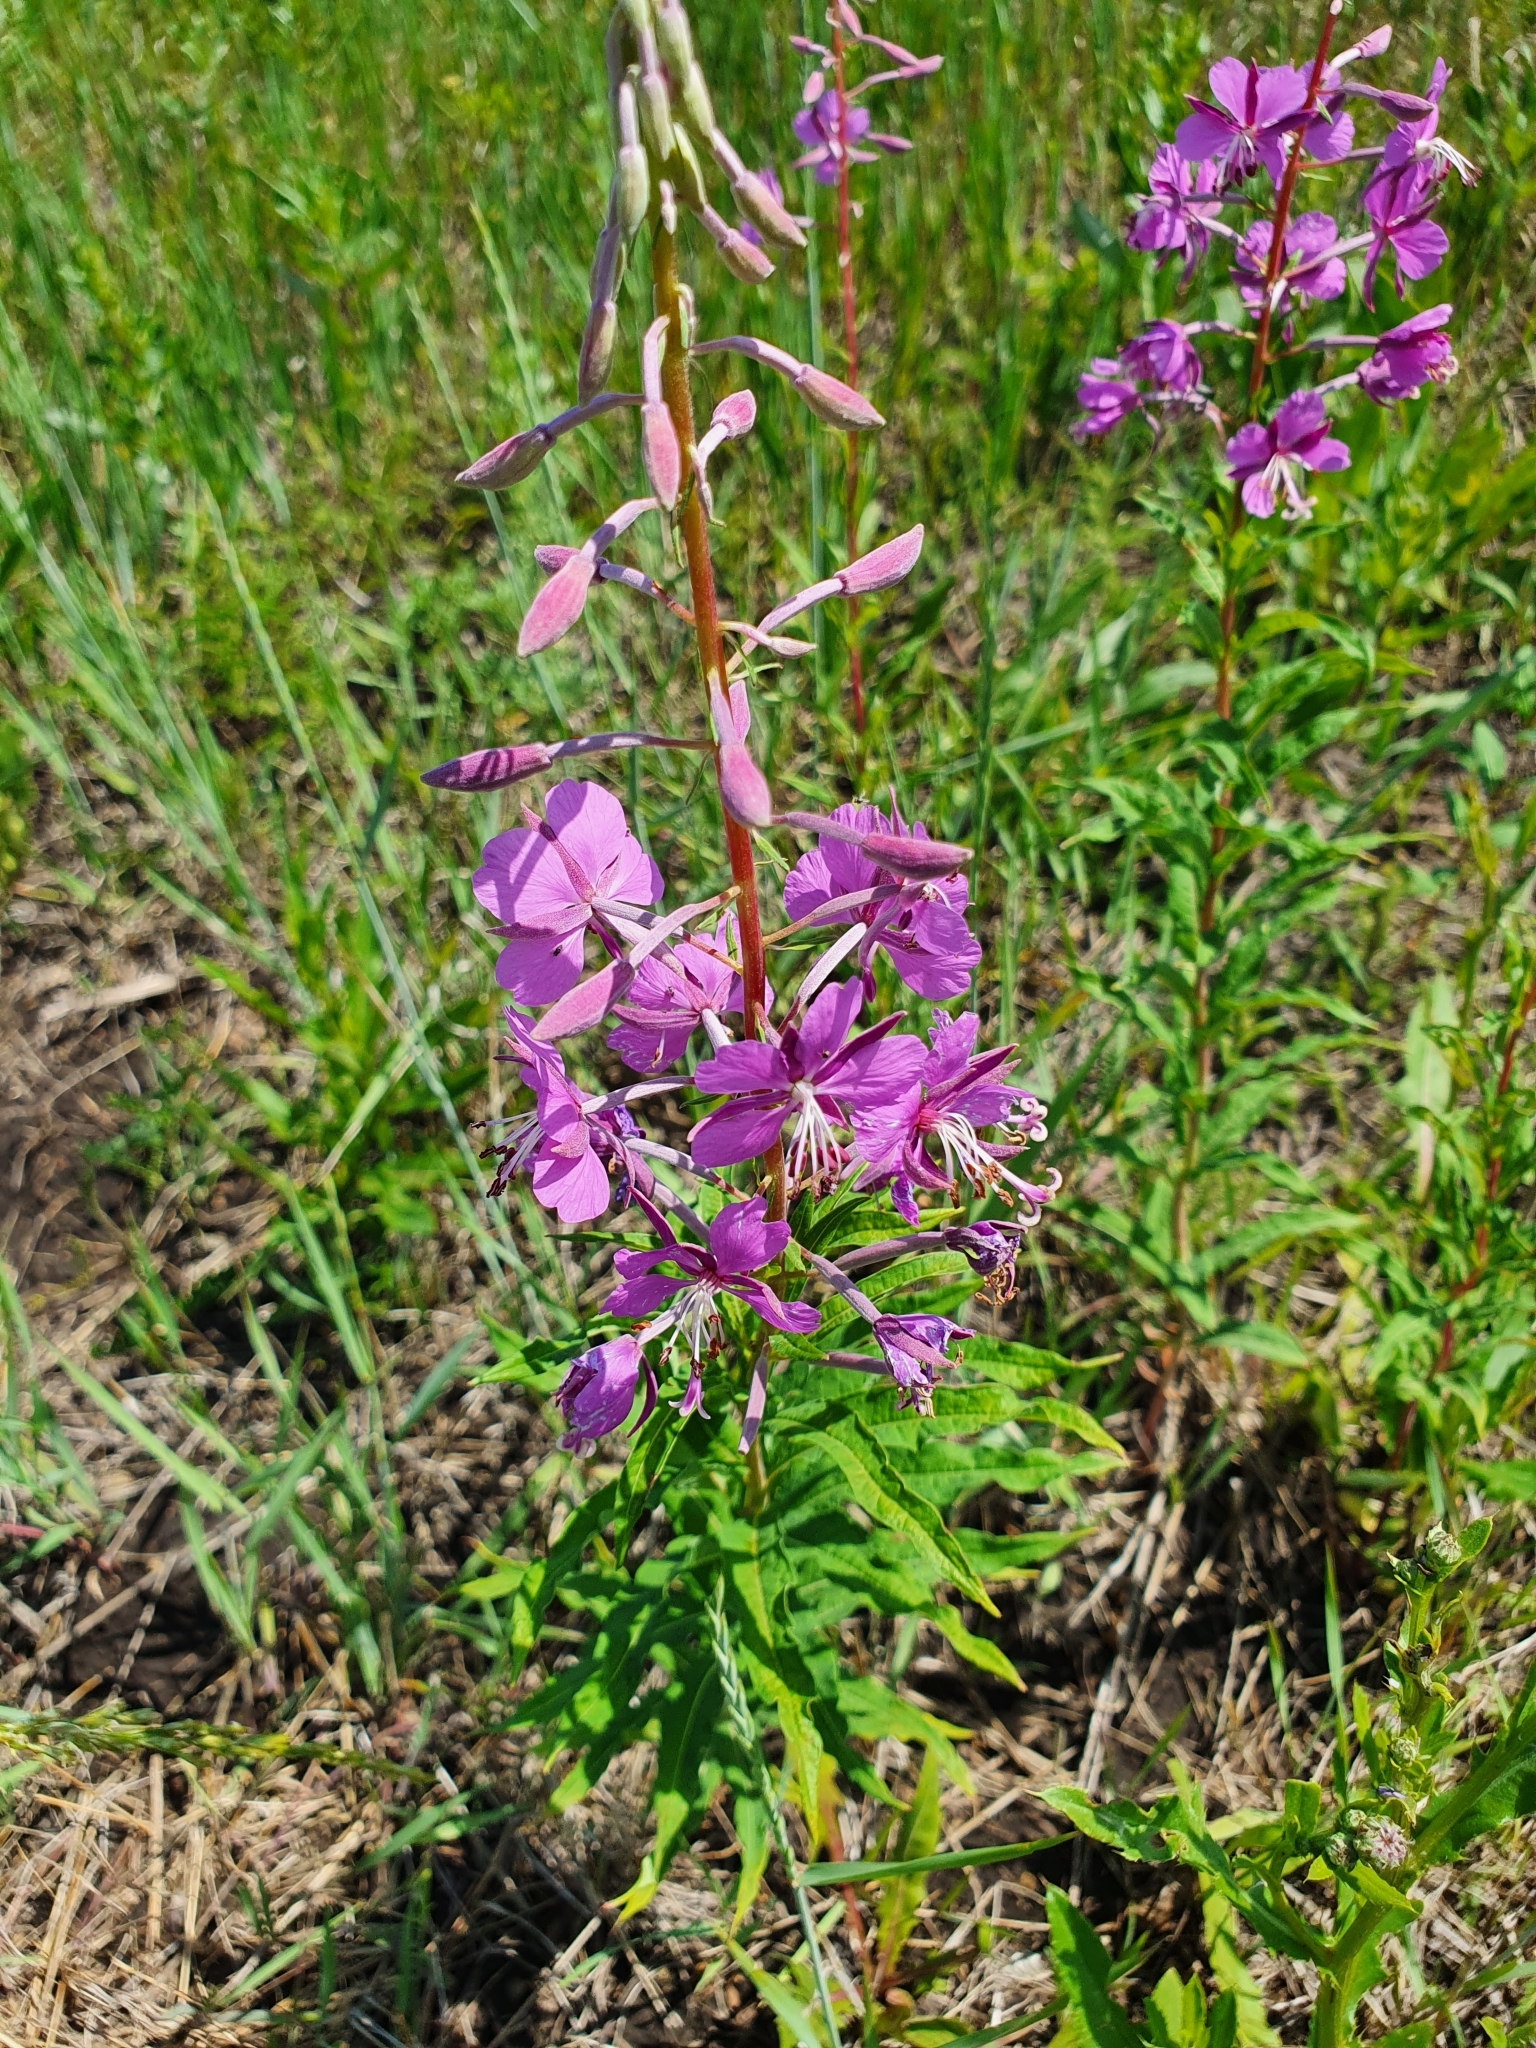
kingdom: Plantae
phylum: Tracheophyta
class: Magnoliopsida
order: Myrtales
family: Onagraceae
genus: Chamaenerion
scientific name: Chamaenerion angustifolium
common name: Fireweed
